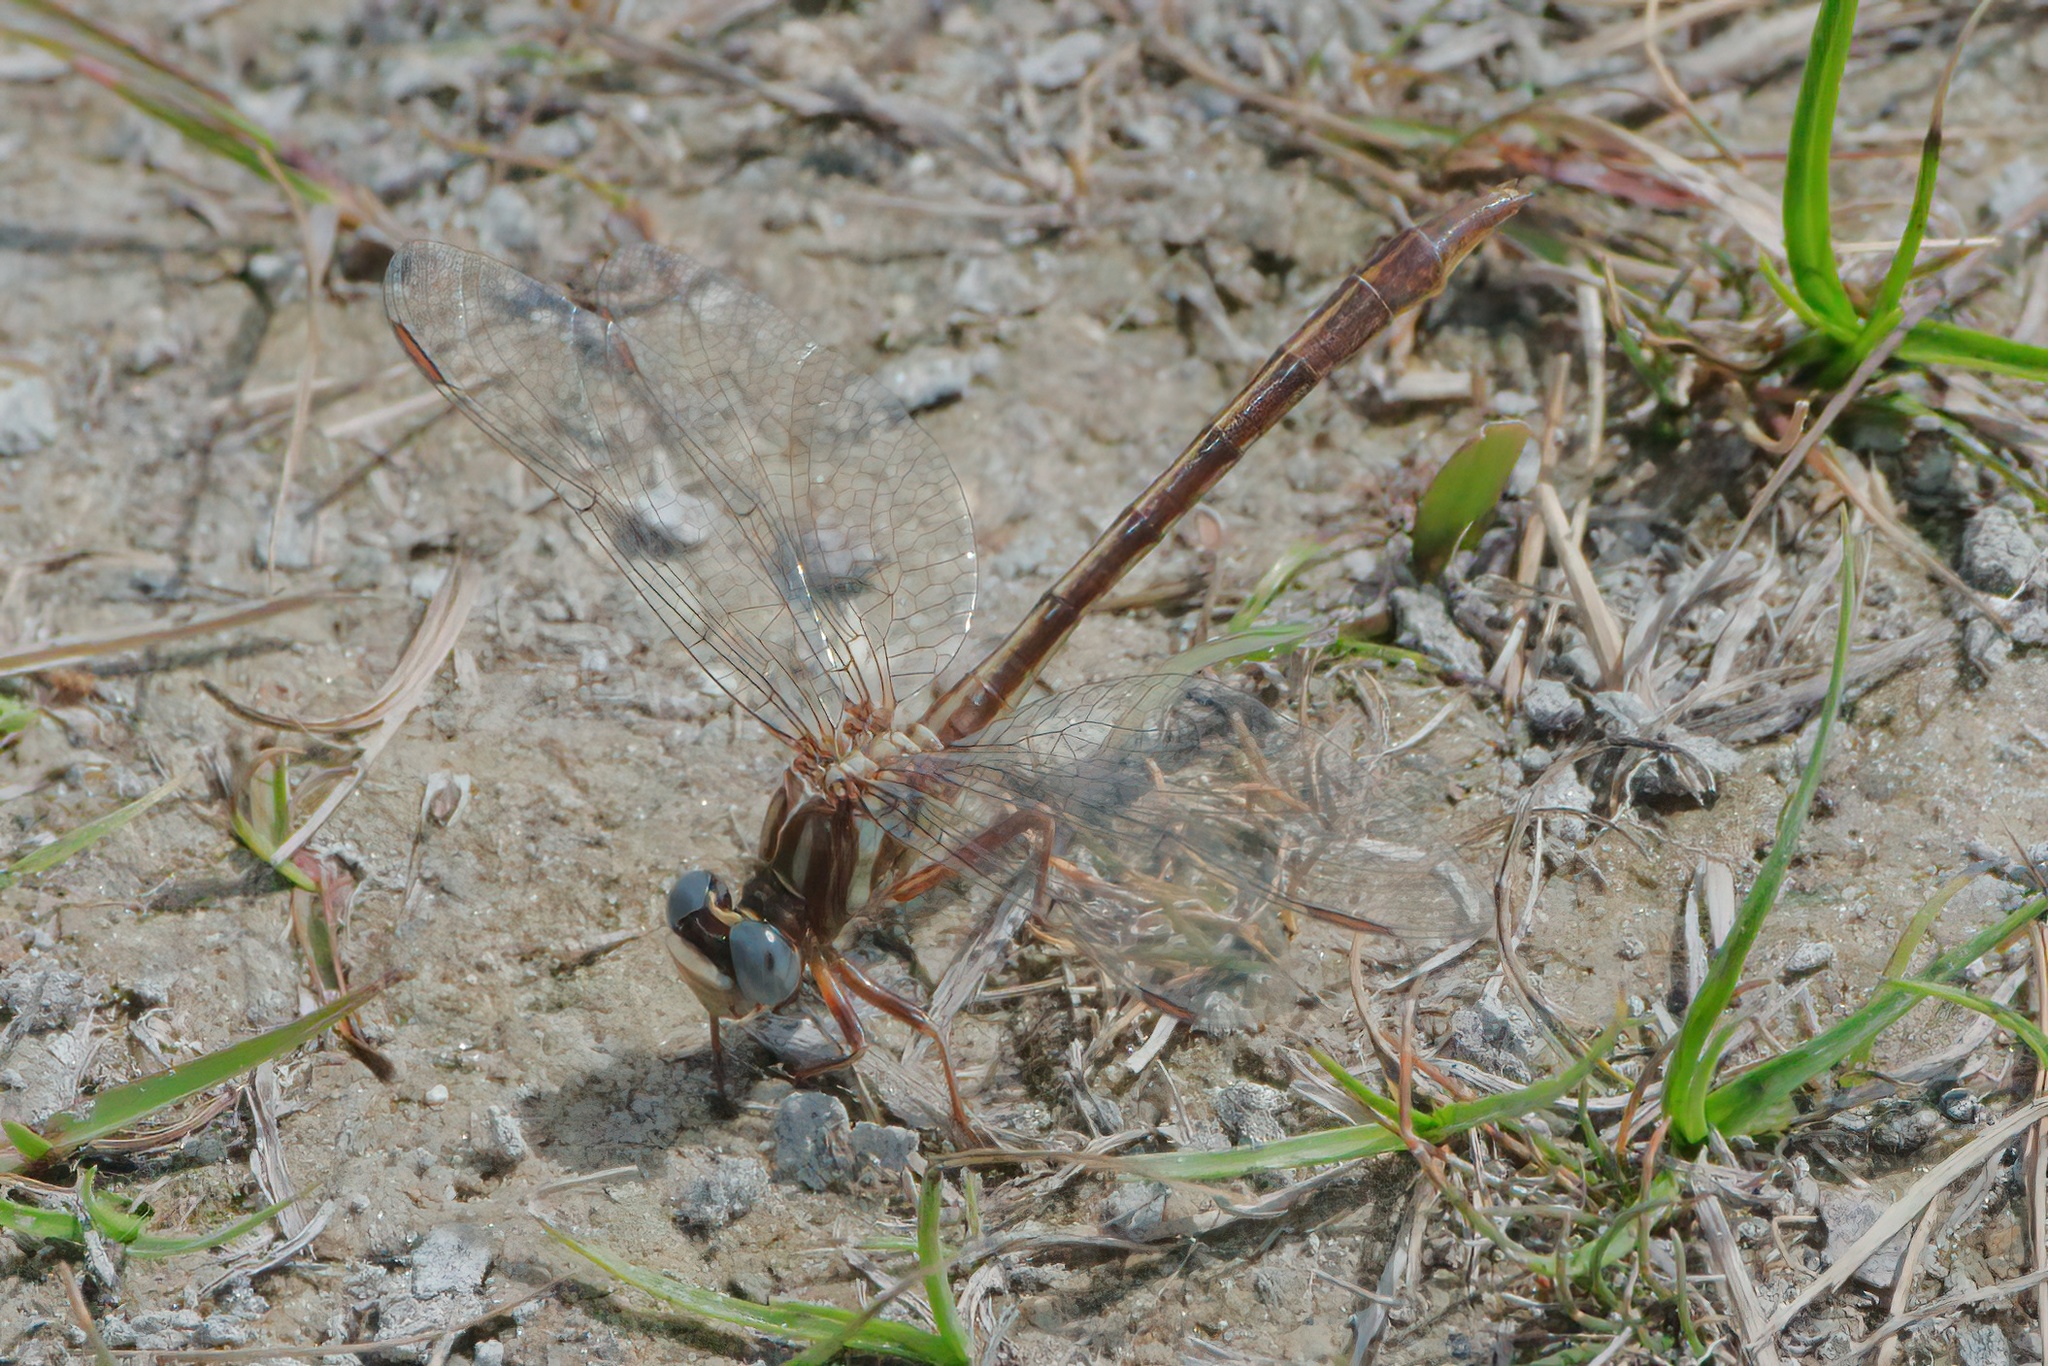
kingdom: Animalia
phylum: Arthropoda
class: Insecta
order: Odonata
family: Gomphidae
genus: Phanogomphus
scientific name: Phanogomphus minutus
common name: Cypress clubtail
